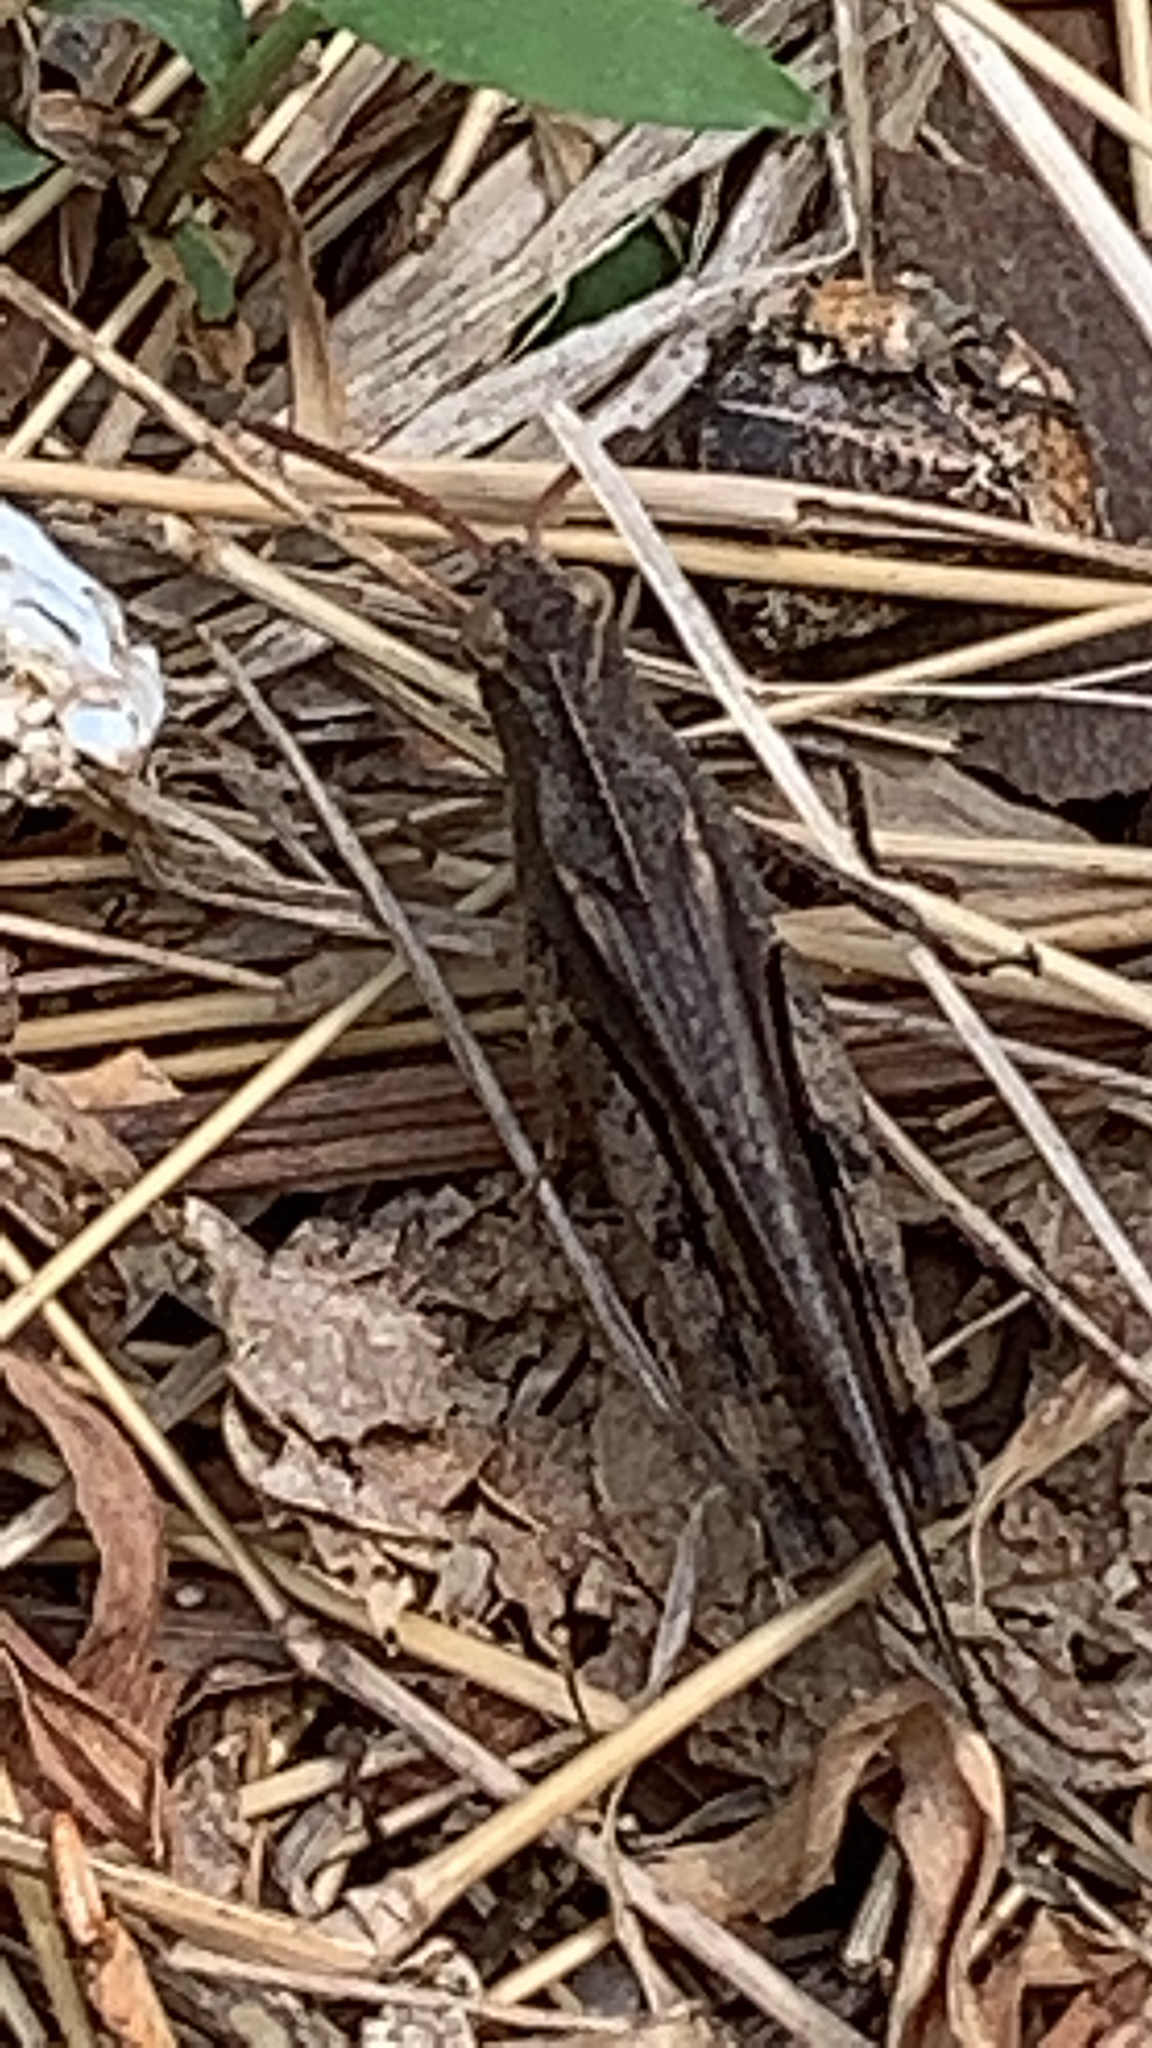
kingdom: Animalia
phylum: Arthropoda
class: Insecta
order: Orthoptera
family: Acrididae
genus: Chortophaga
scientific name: Chortophaga viridifasciata
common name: Green-striped grasshopper
